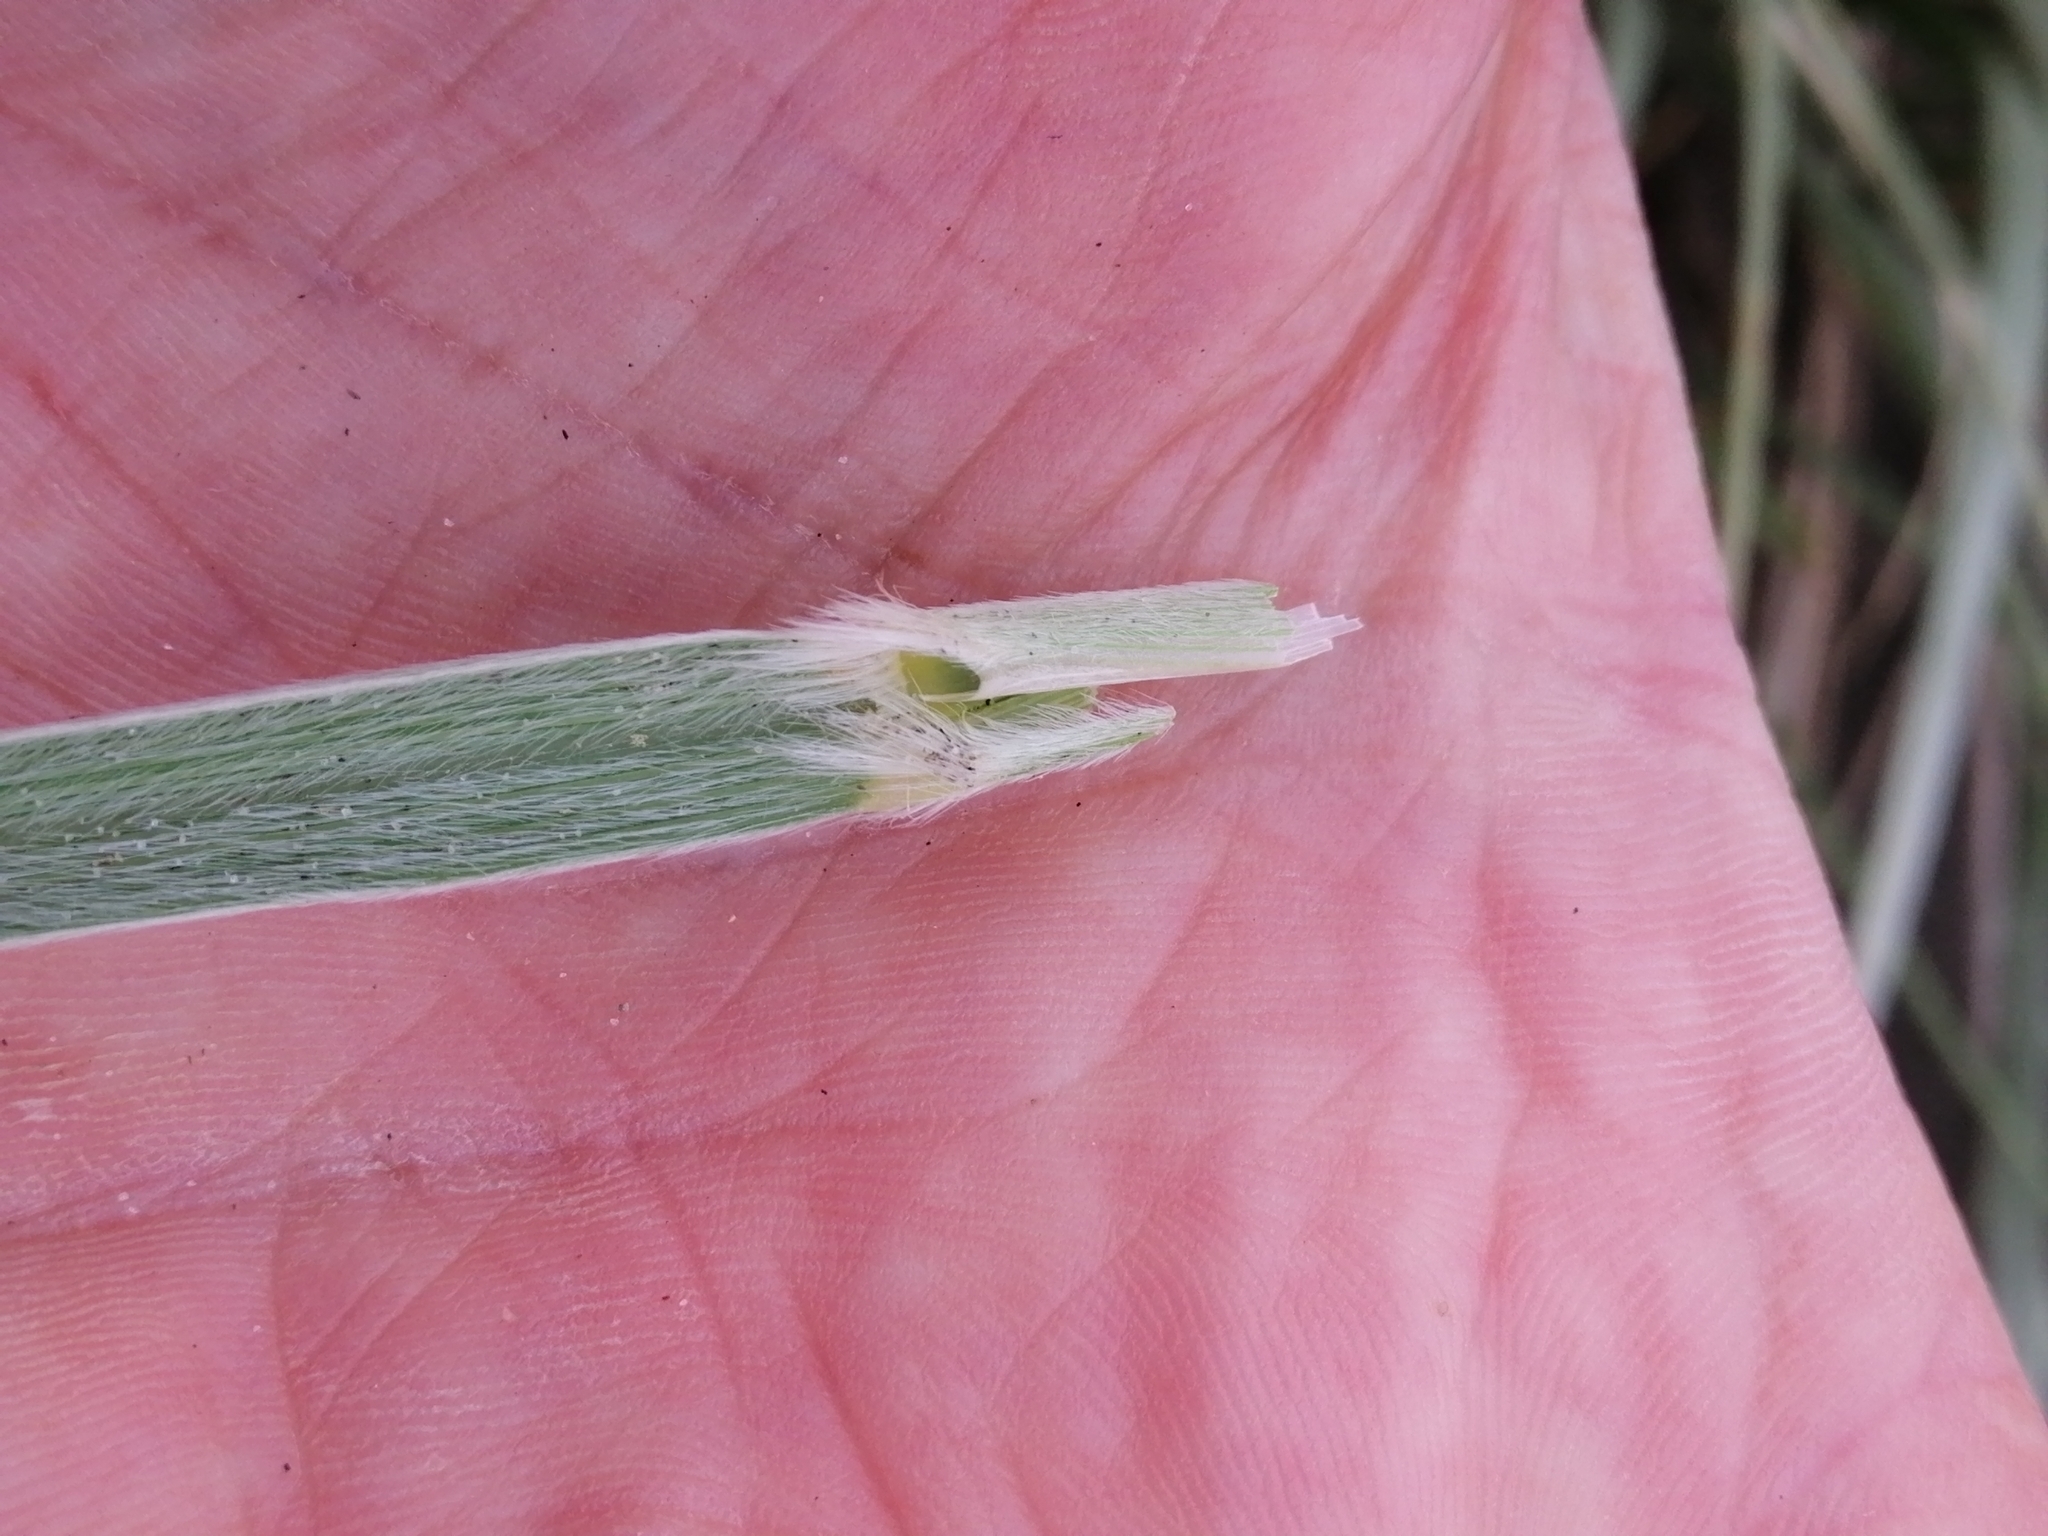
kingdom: Plantae
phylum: Tracheophyta
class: Liliopsida
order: Poales
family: Poaceae
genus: Spinifex
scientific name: Spinifex sericeus
